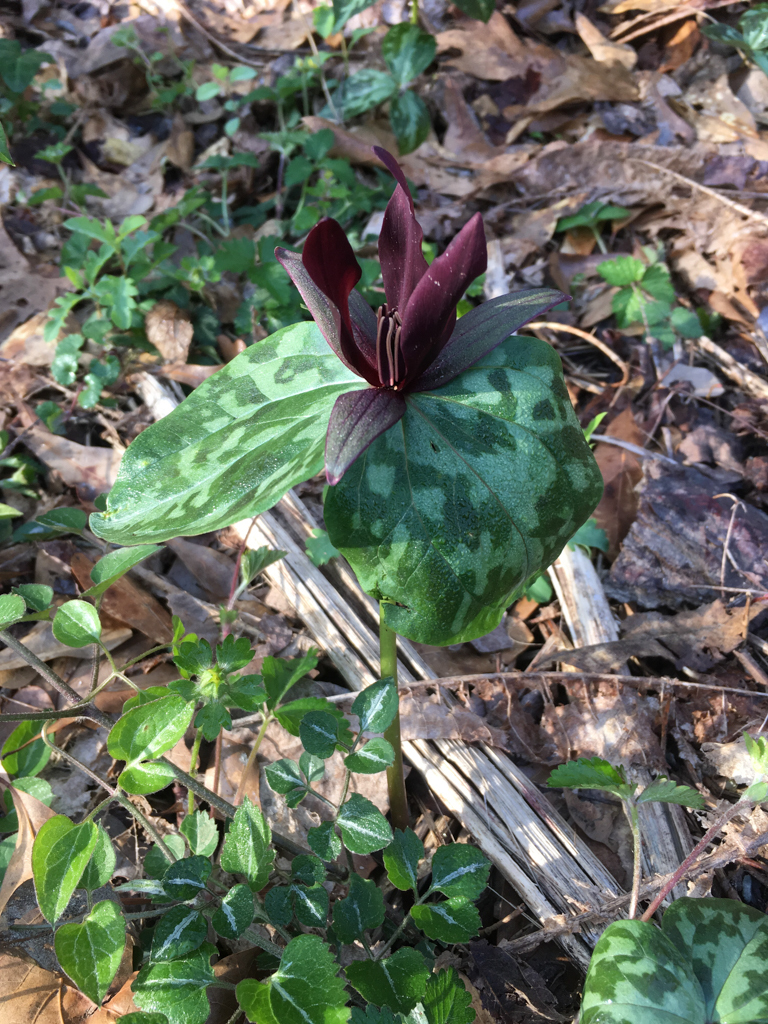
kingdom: Plantae
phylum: Tracheophyta
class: Liliopsida
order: Liliales
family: Melanthiaceae
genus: Trillium
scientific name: Trillium cuneatum
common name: Cuneate trillium
